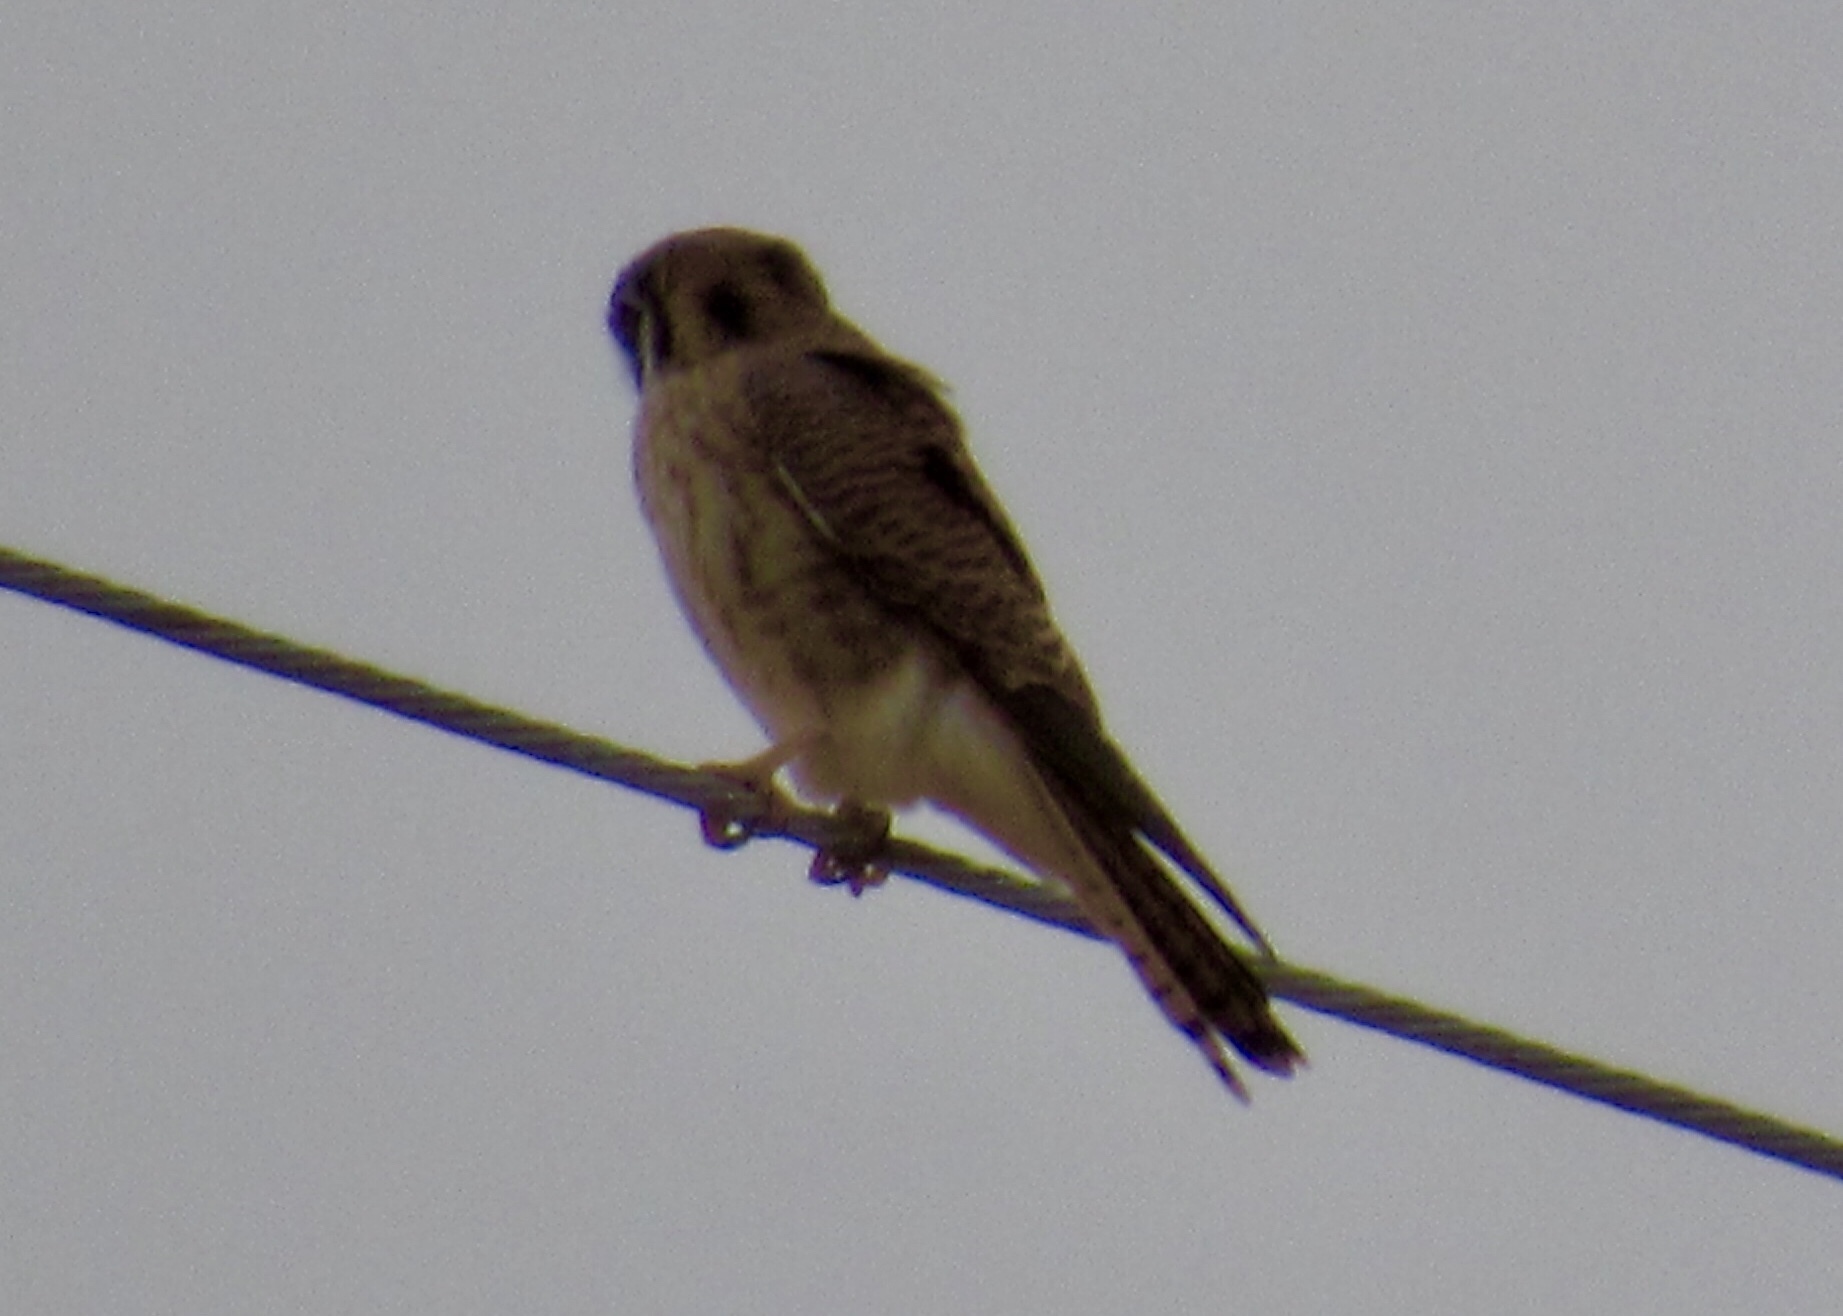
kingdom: Animalia
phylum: Chordata
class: Aves
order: Falconiformes
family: Falconidae
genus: Falco
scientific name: Falco sparverius
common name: American kestrel
